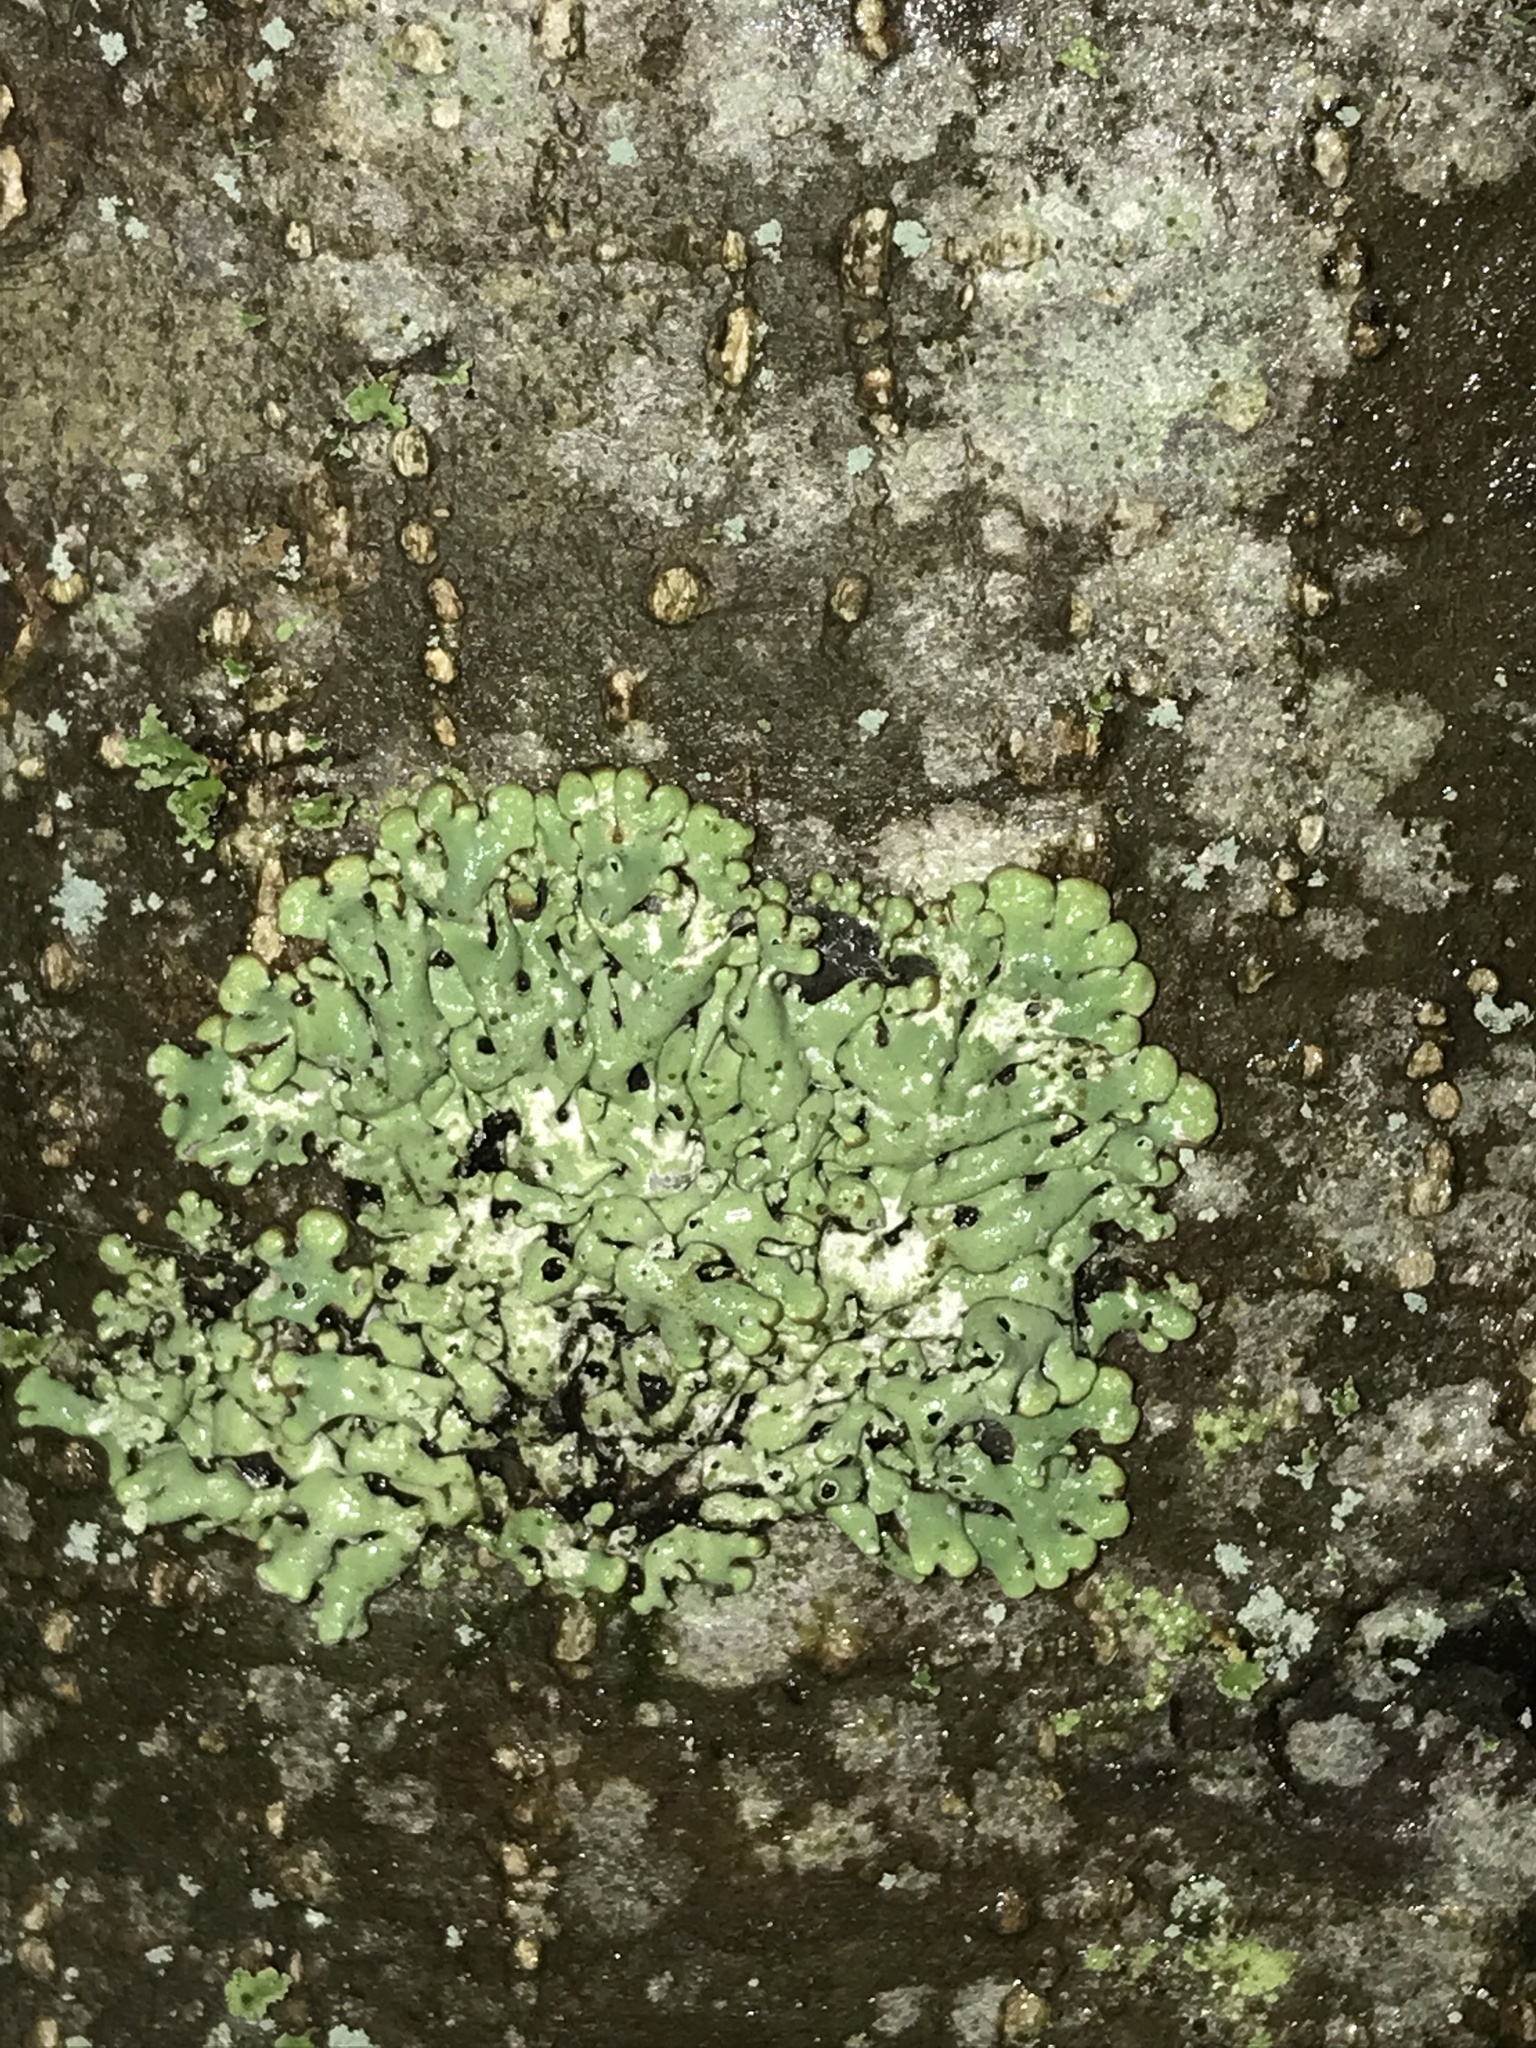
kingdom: Fungi
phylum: Ascomycota
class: Lecanoromycetes
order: Lecanorales
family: Parmeliaceae
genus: Menegazzia
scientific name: Menegazzia subsimilis
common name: Tree flute lichen
